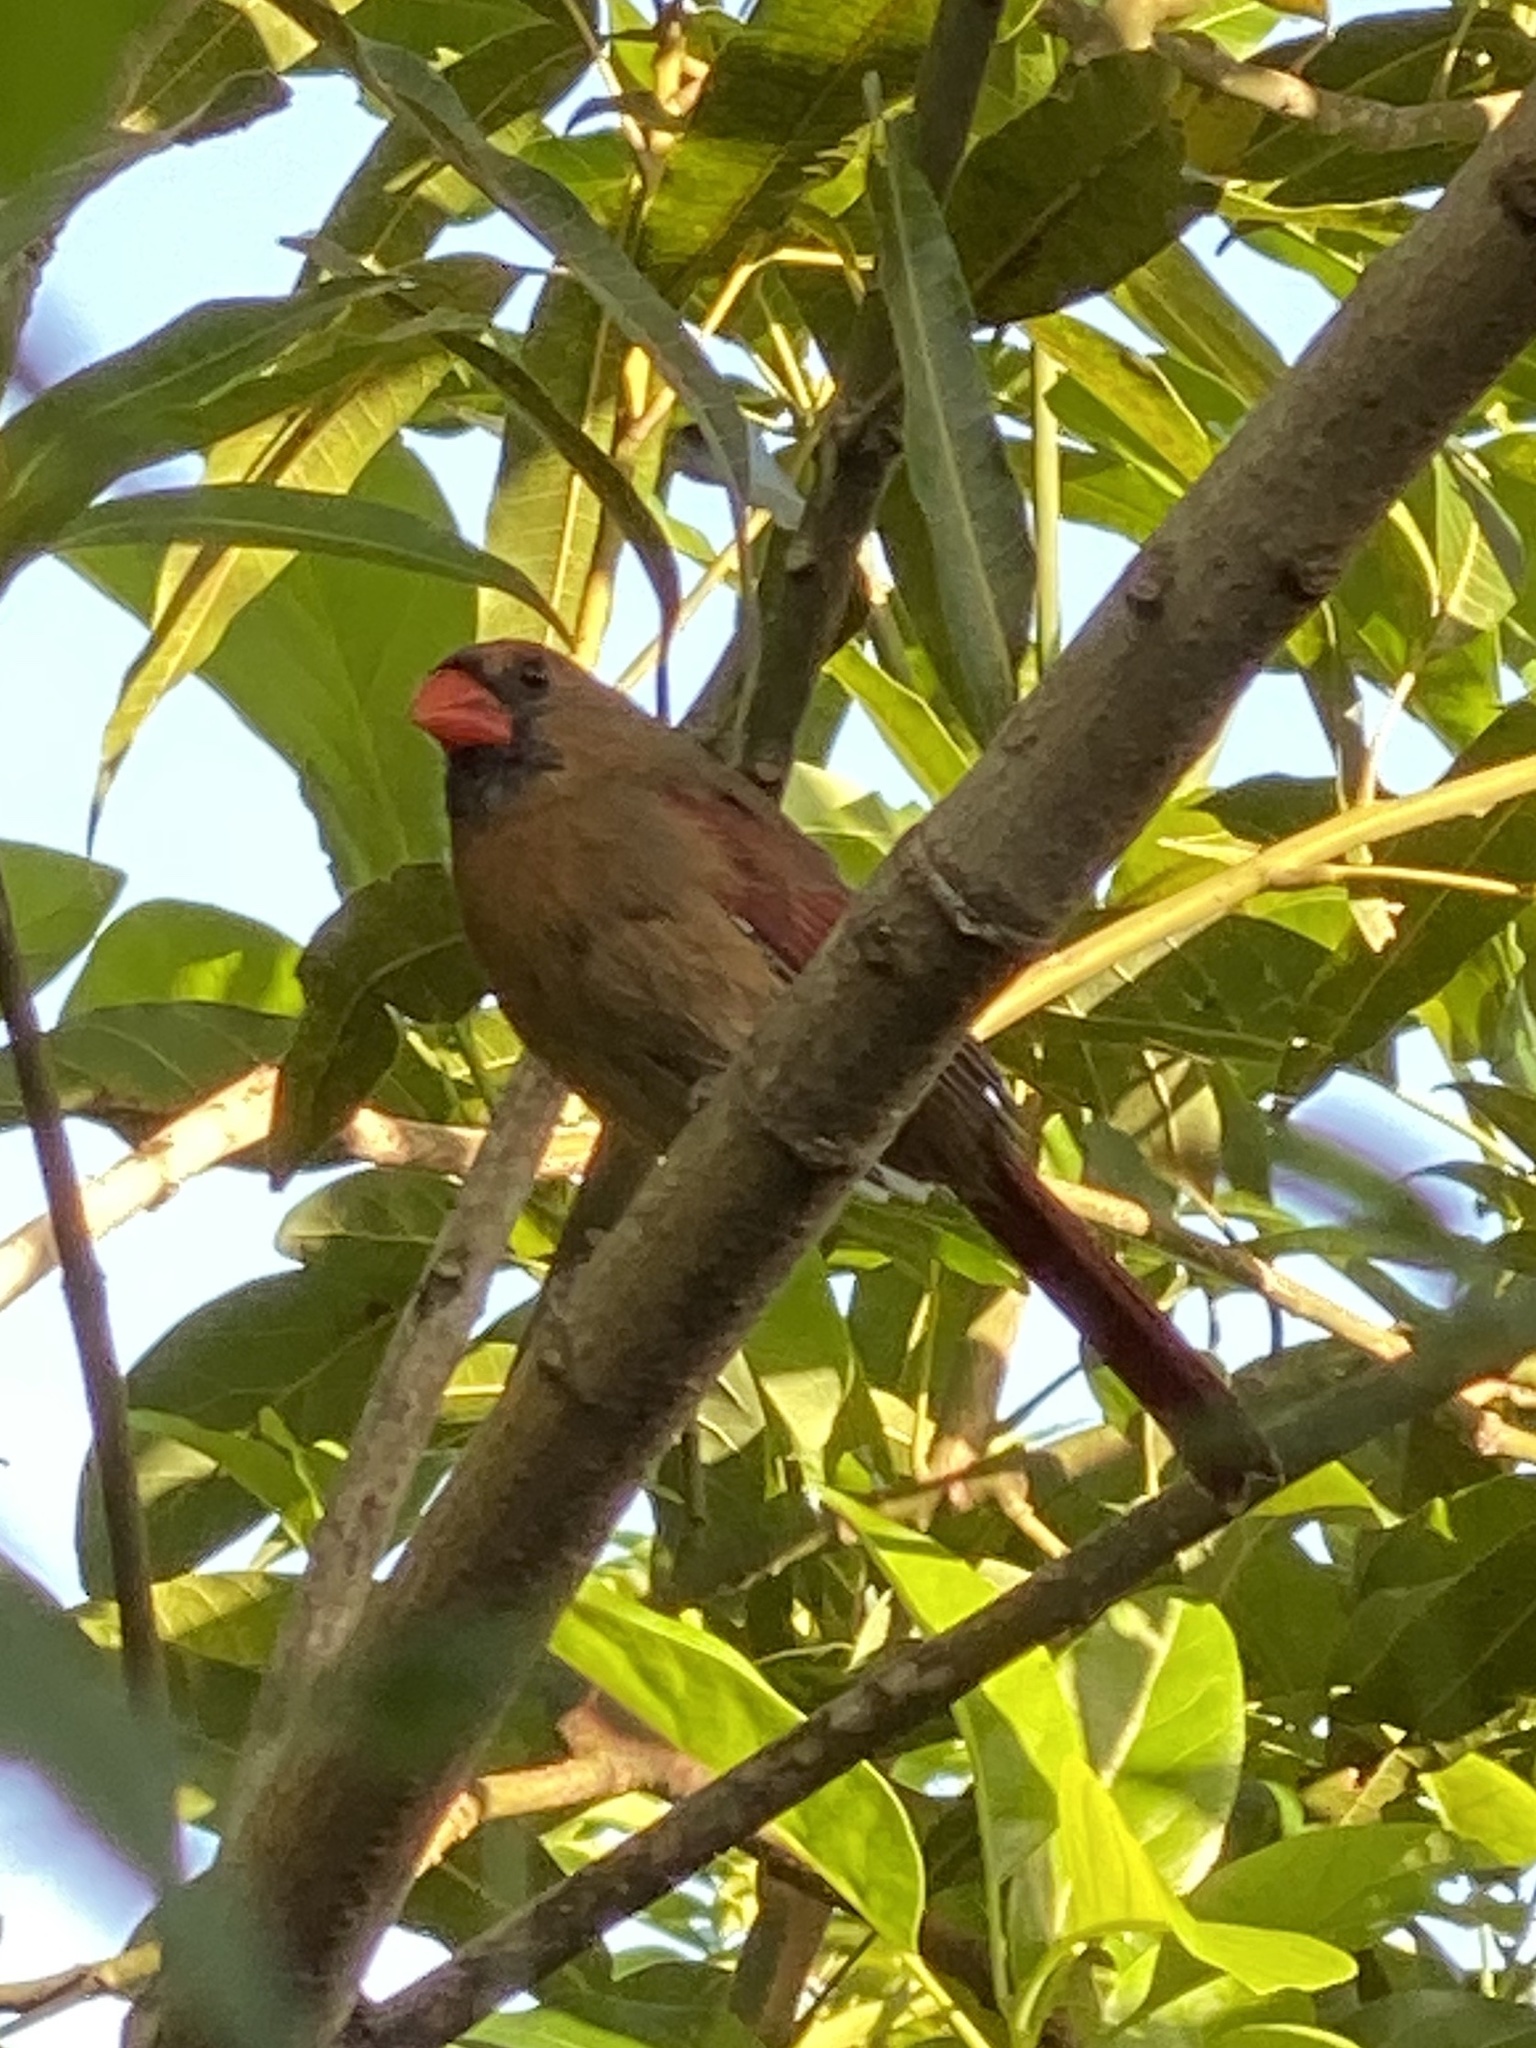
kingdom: Animalia
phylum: Chordata
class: Aves
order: Passeriformes
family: Cardinalidae
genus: Cardinalis
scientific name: Cardinalis cardinalis
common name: Northern cardinal
